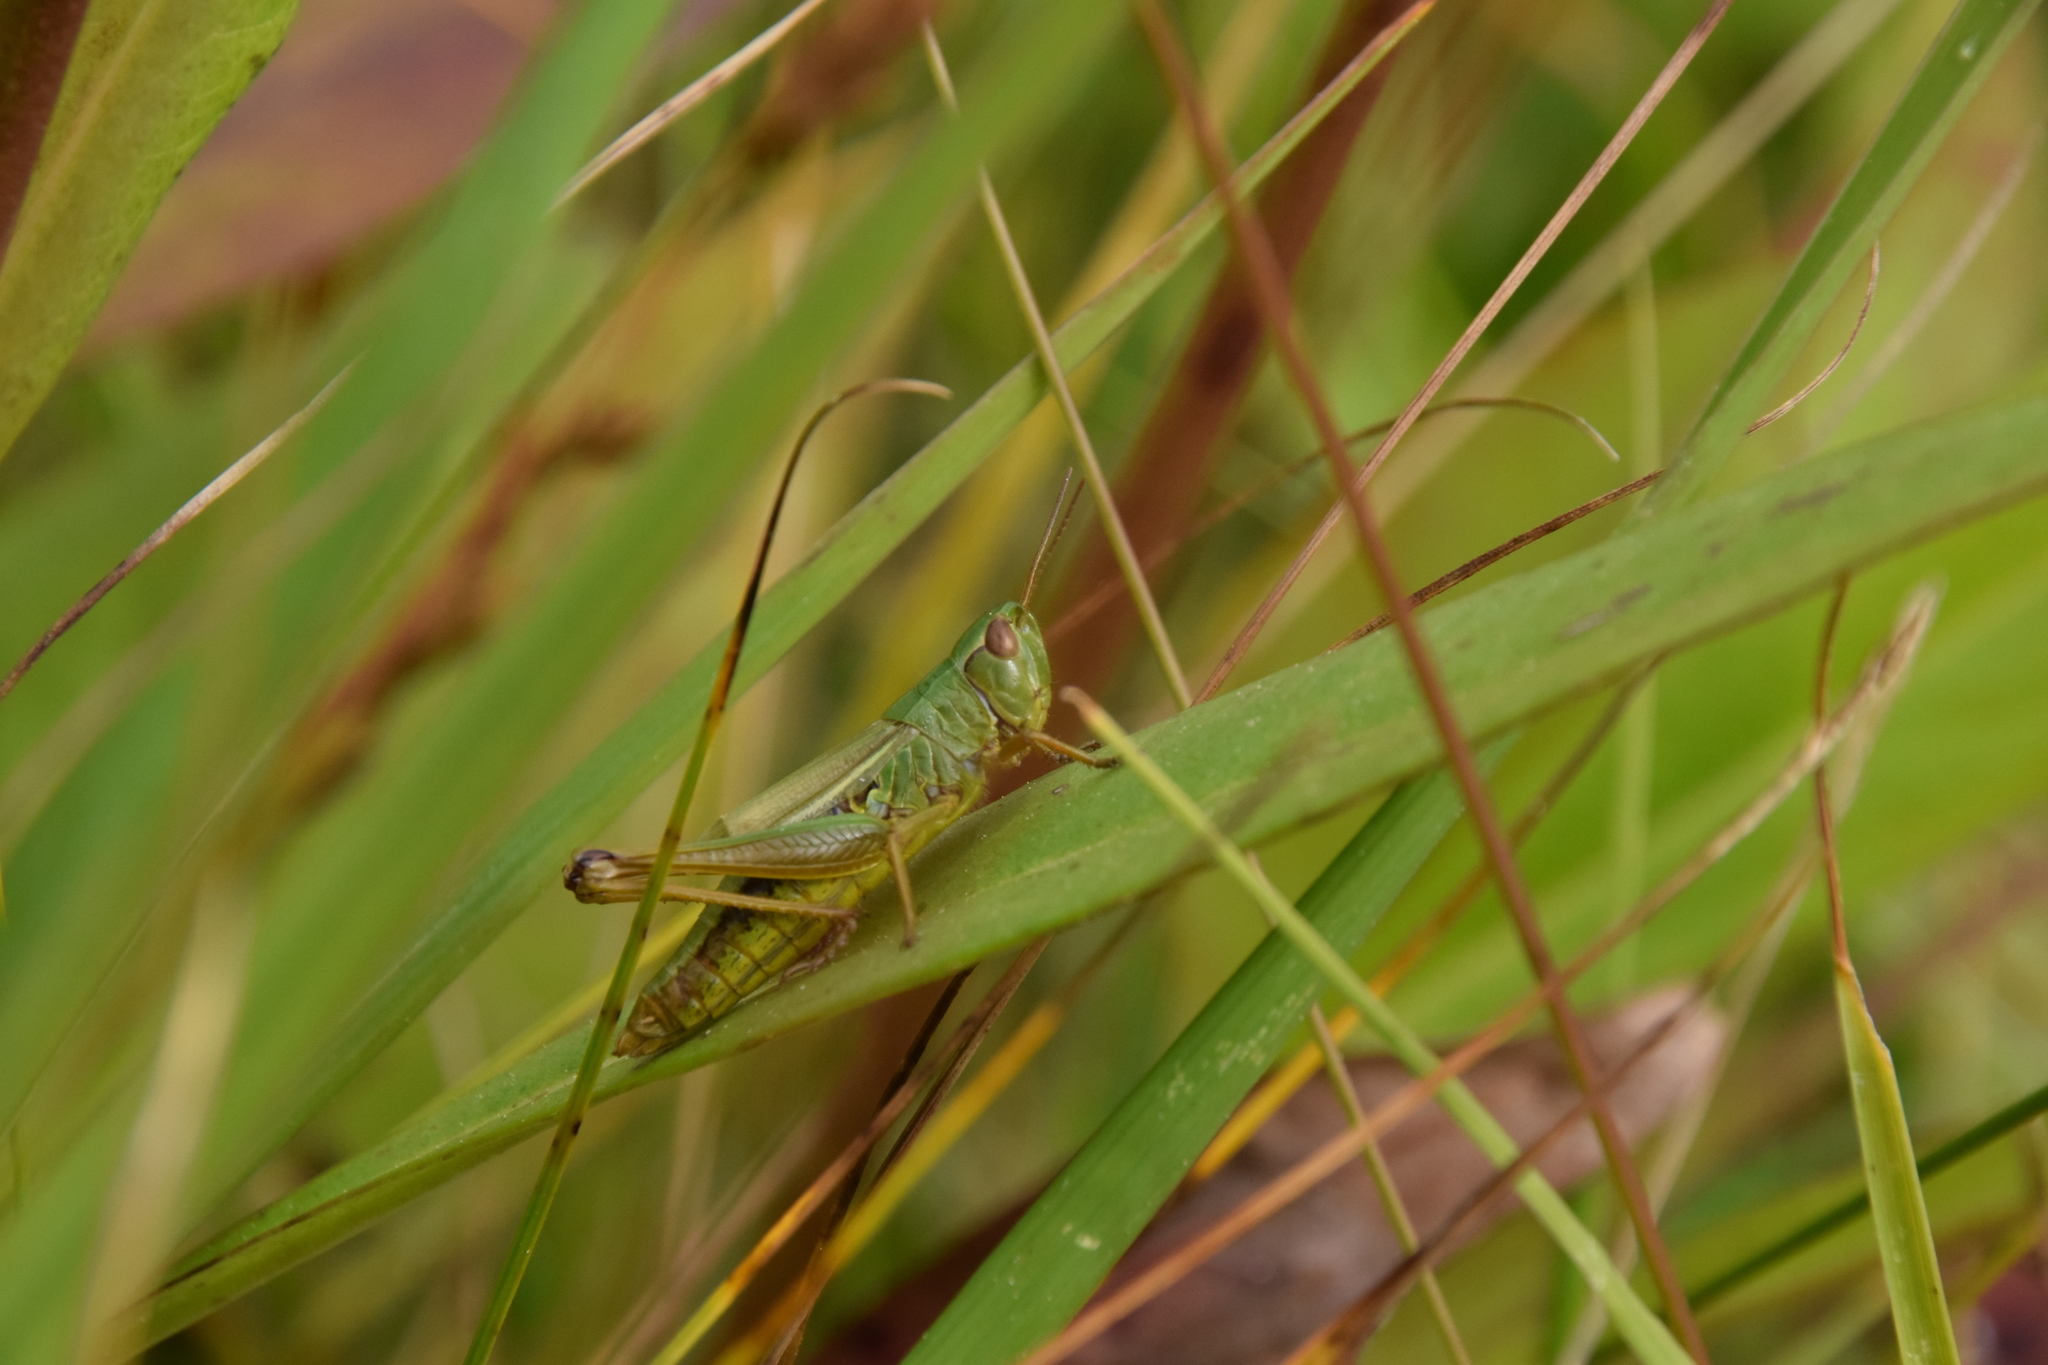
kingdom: Animalia
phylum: Arthropoda
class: Insecta
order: Orthoptera
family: Acrididae
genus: Pseudochorthippus
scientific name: Pseudochorthippus montanus
